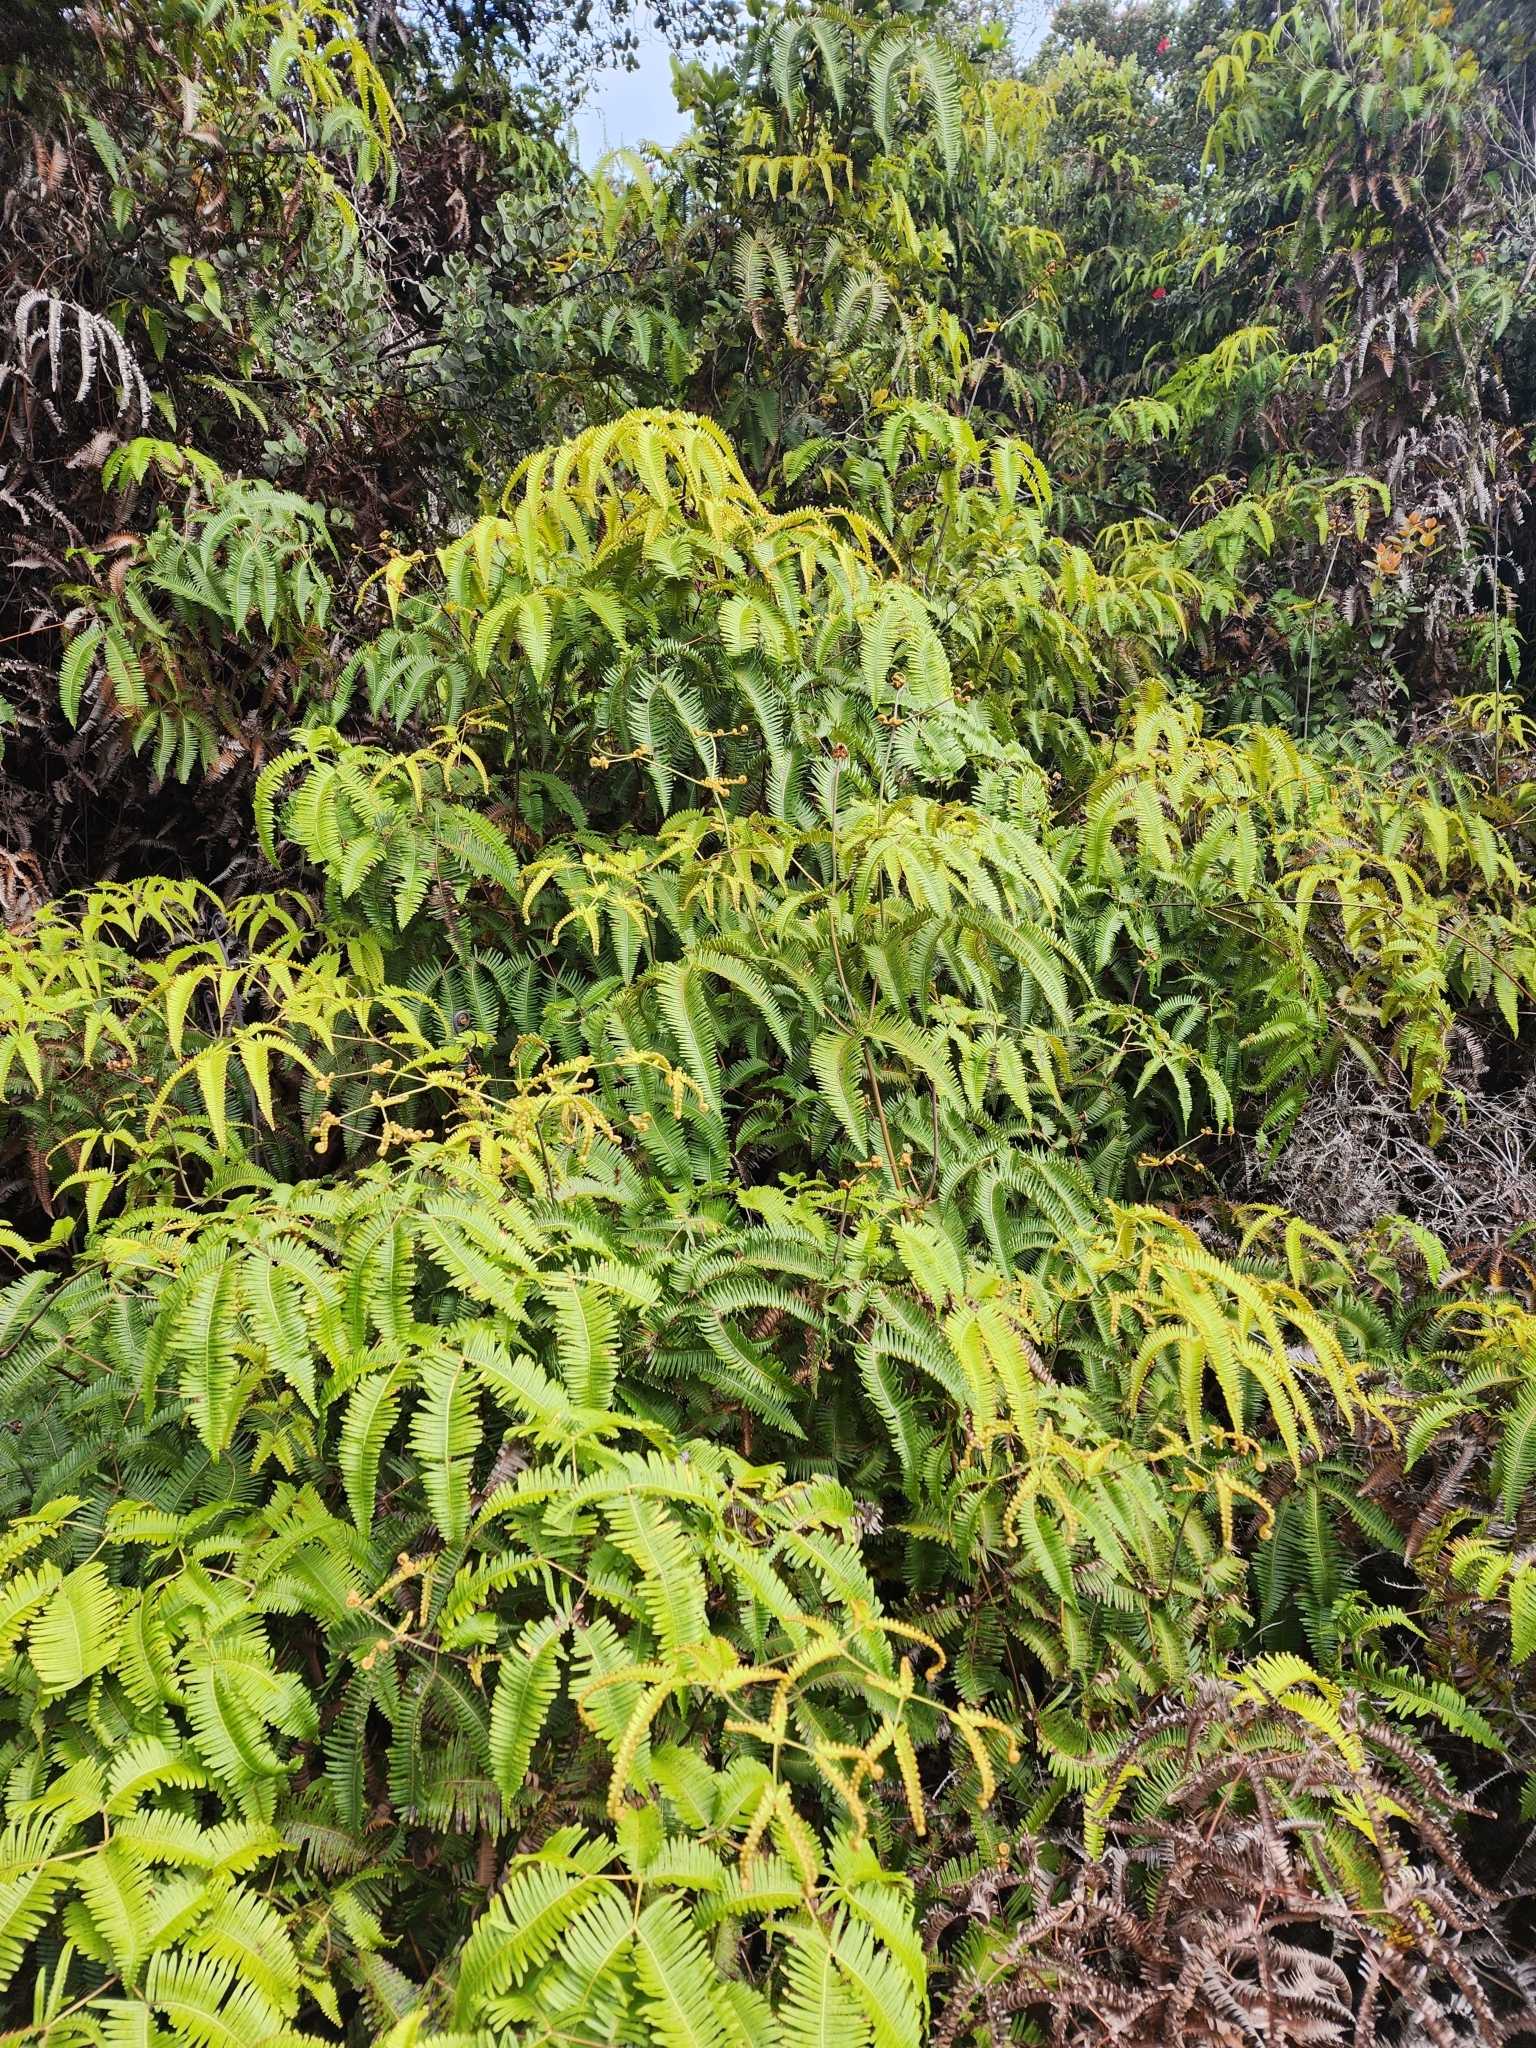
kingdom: Plantae
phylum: Tracheophyta
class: Polypodiopsida
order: Gleicheniales
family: Gleicheniaceae
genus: Dicranopteris
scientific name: Dicranopteris linearis
